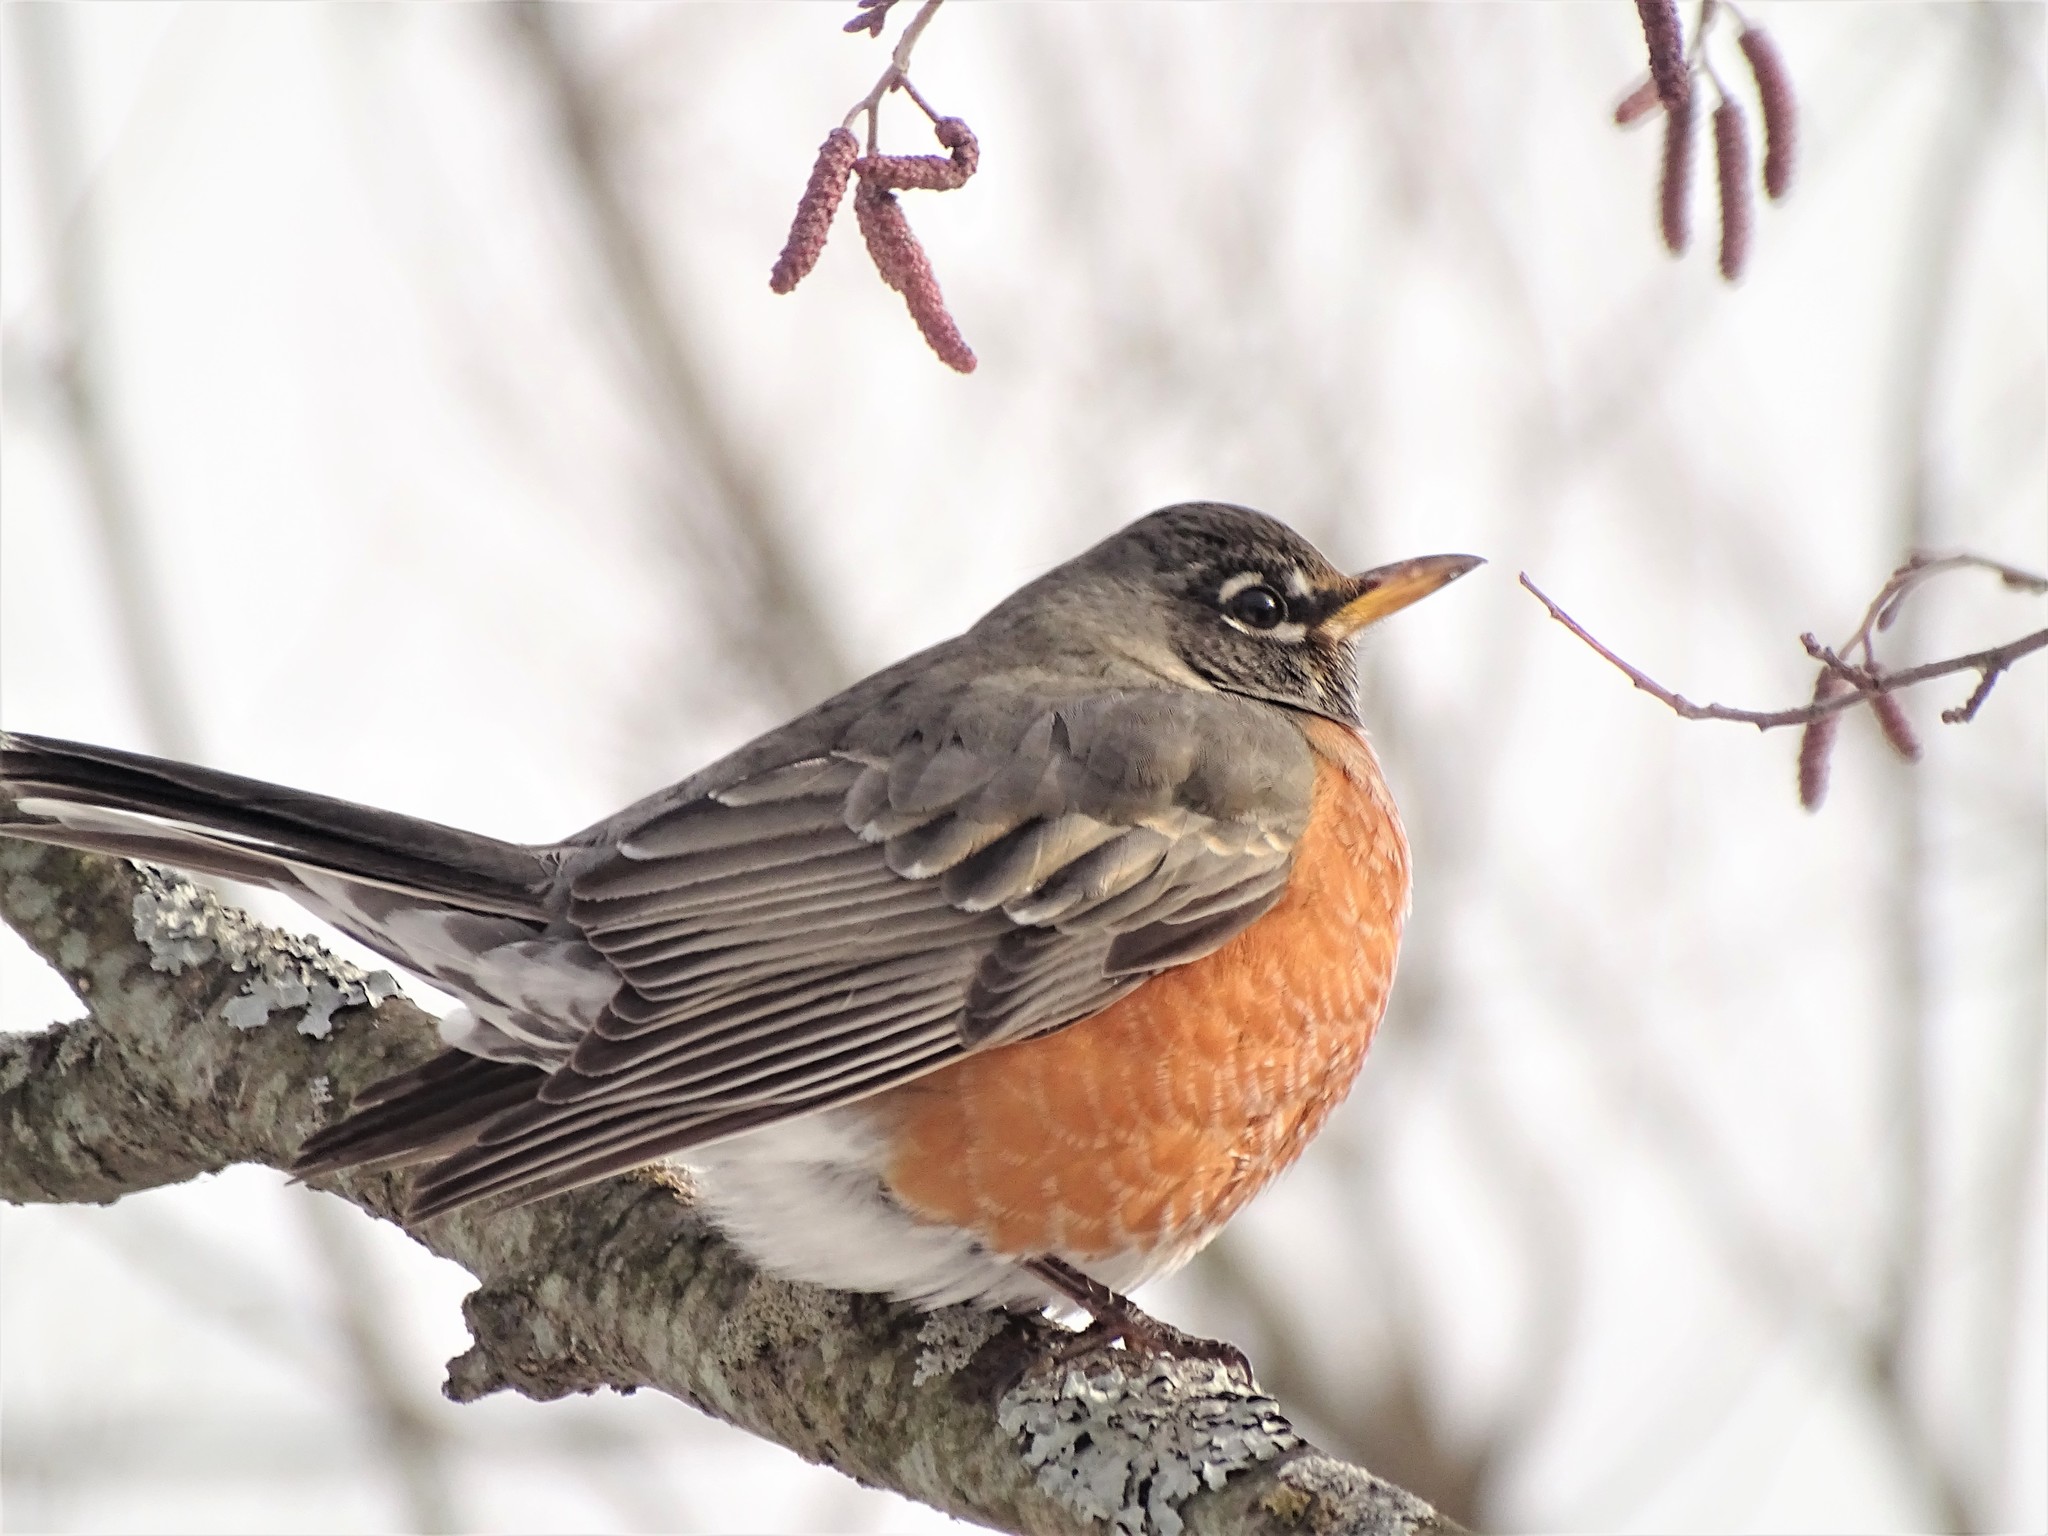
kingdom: Animalia
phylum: Chordata
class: Aves
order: Passeriformes
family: Turdidae
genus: Turdus
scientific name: Turdus migratorius
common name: American robin
